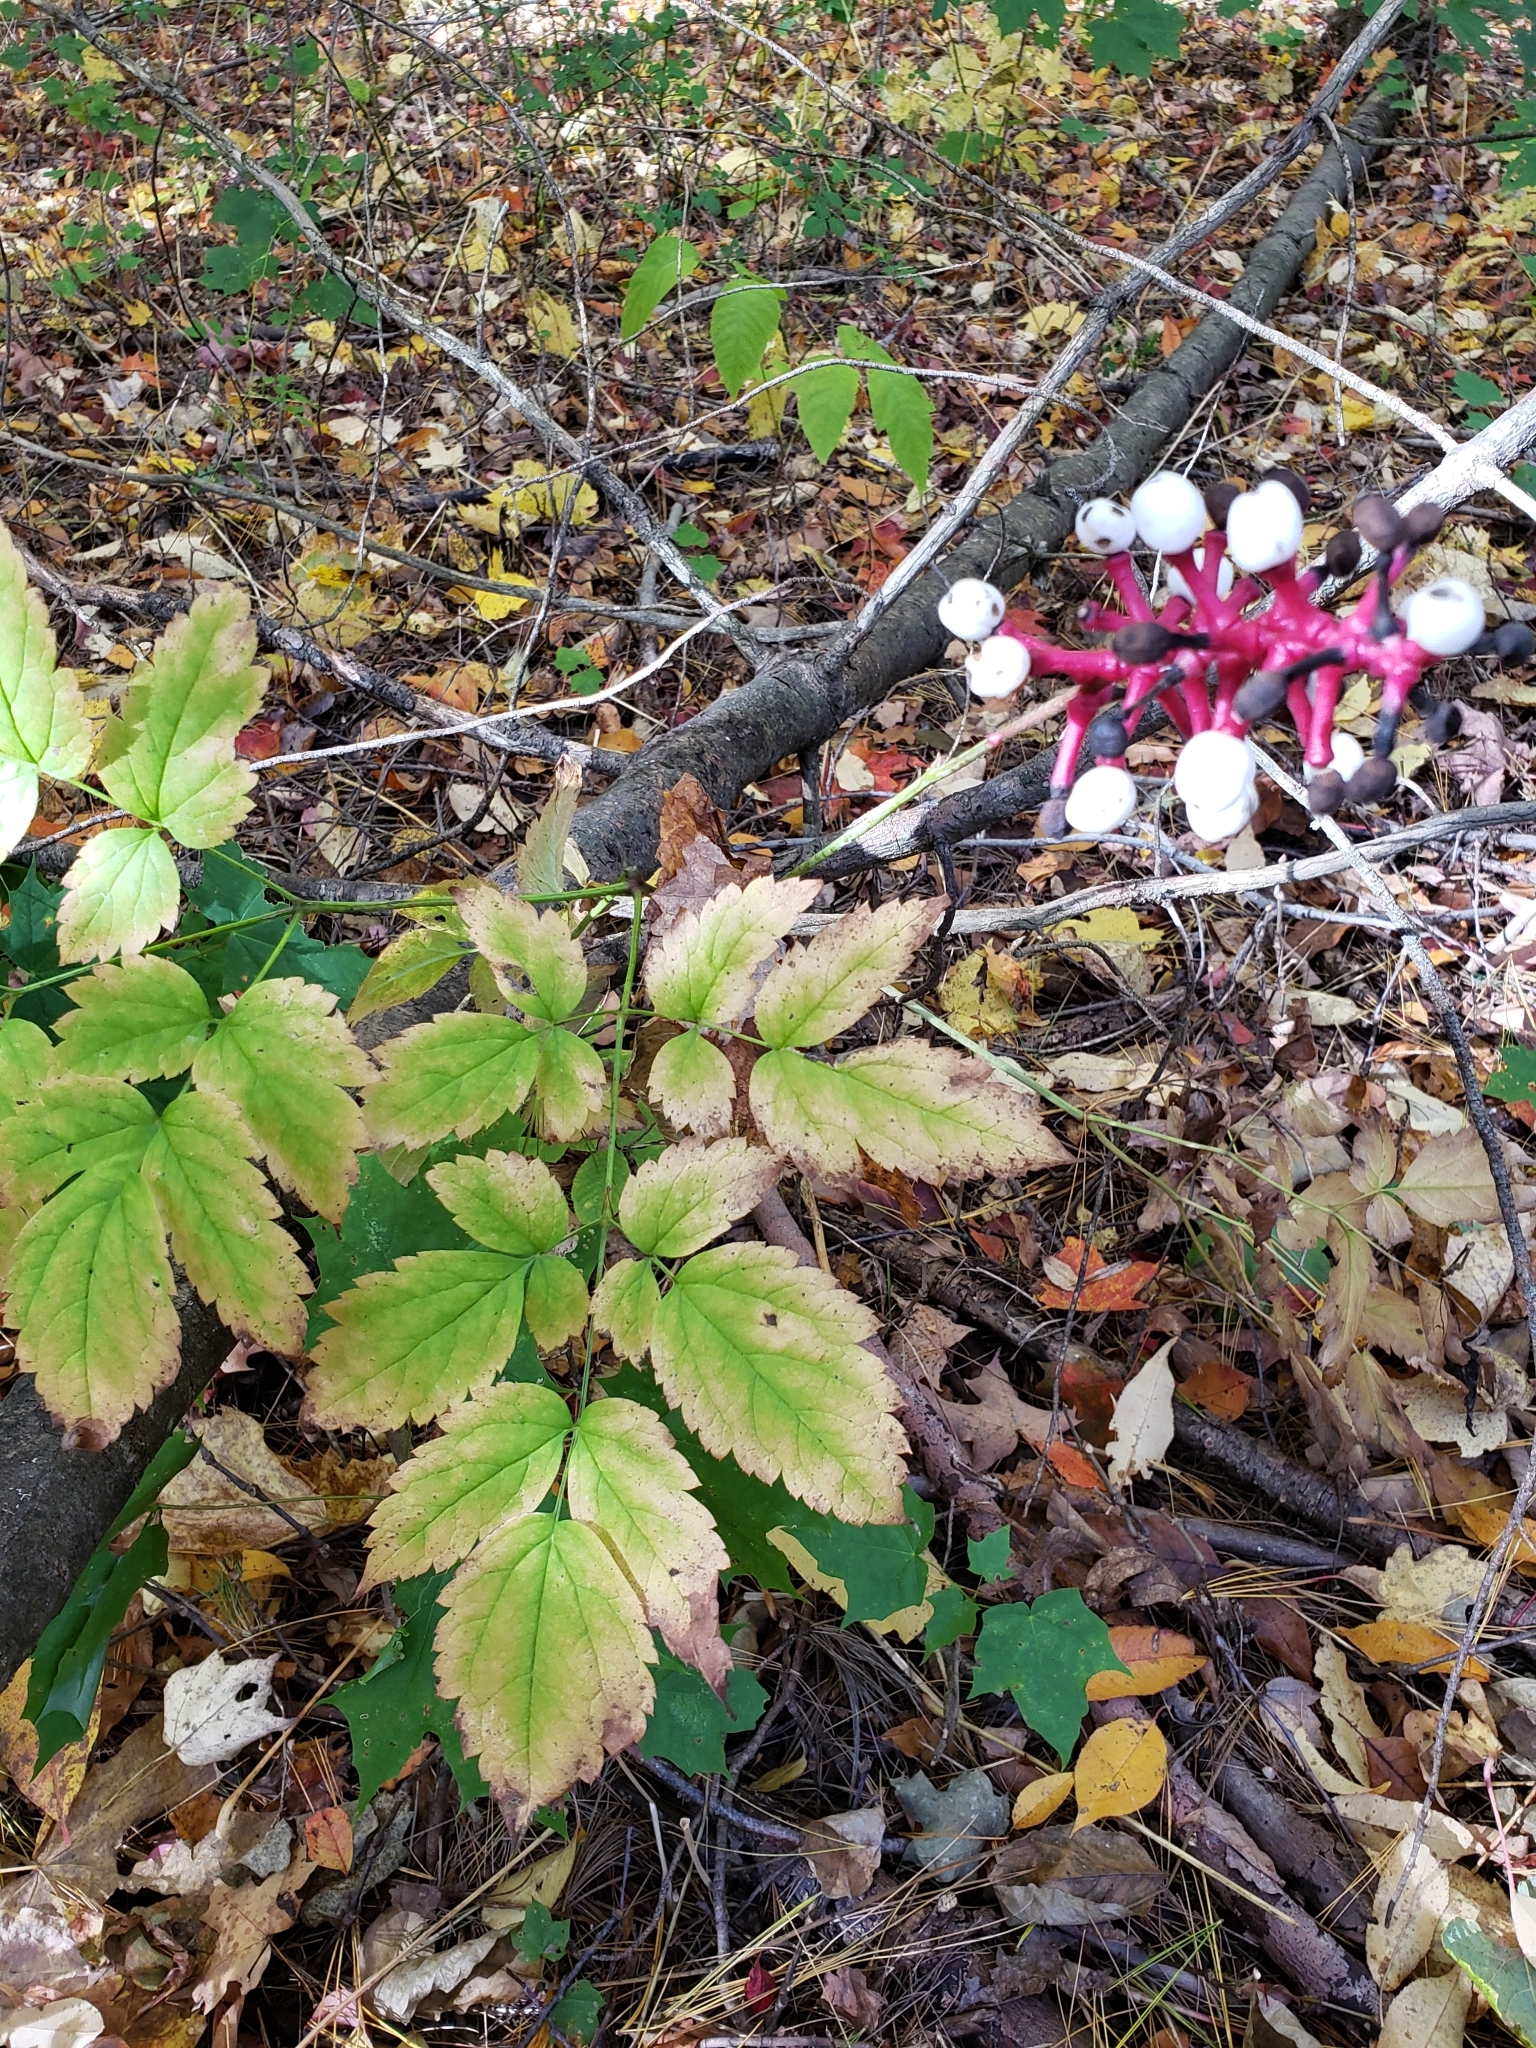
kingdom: Plantae
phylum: Tracheophyta
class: Magnoliopsida
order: Ranunculales
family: Ranunculaceae
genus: Actaea
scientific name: Actaea pachypoda
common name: Doll's-eyes
